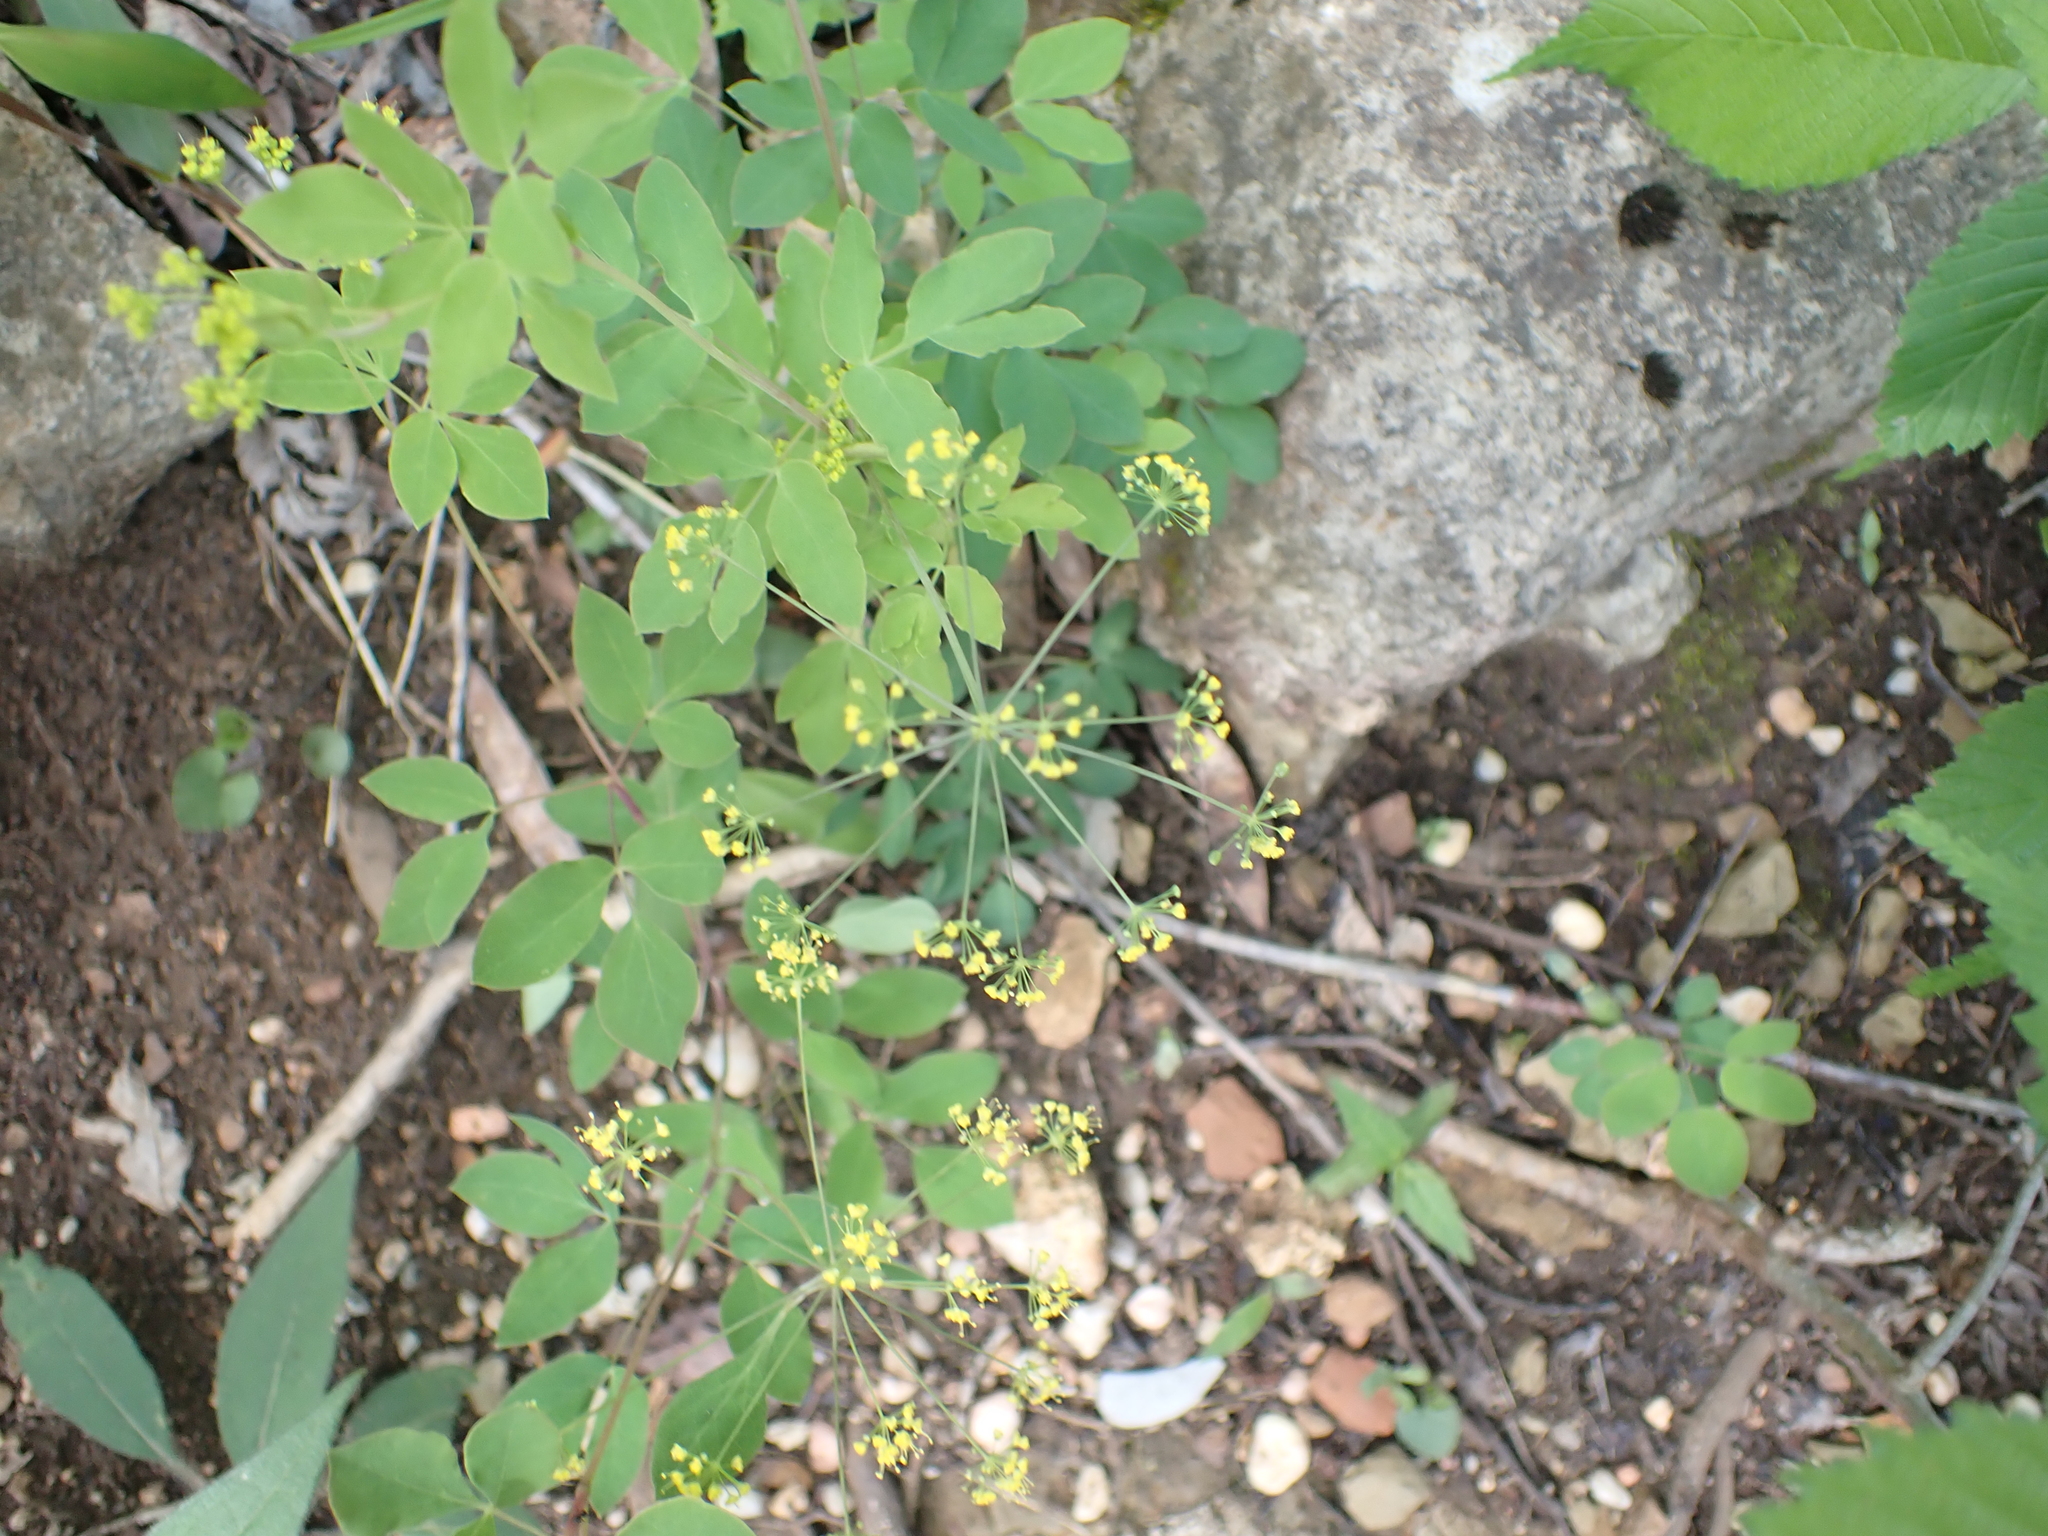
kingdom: Plantae
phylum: Tracheophyta
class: Magnoliopsida
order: Apiales
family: Apiaceae
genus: Taenidia
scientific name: Taenidia integerrima
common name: Golden alexander
